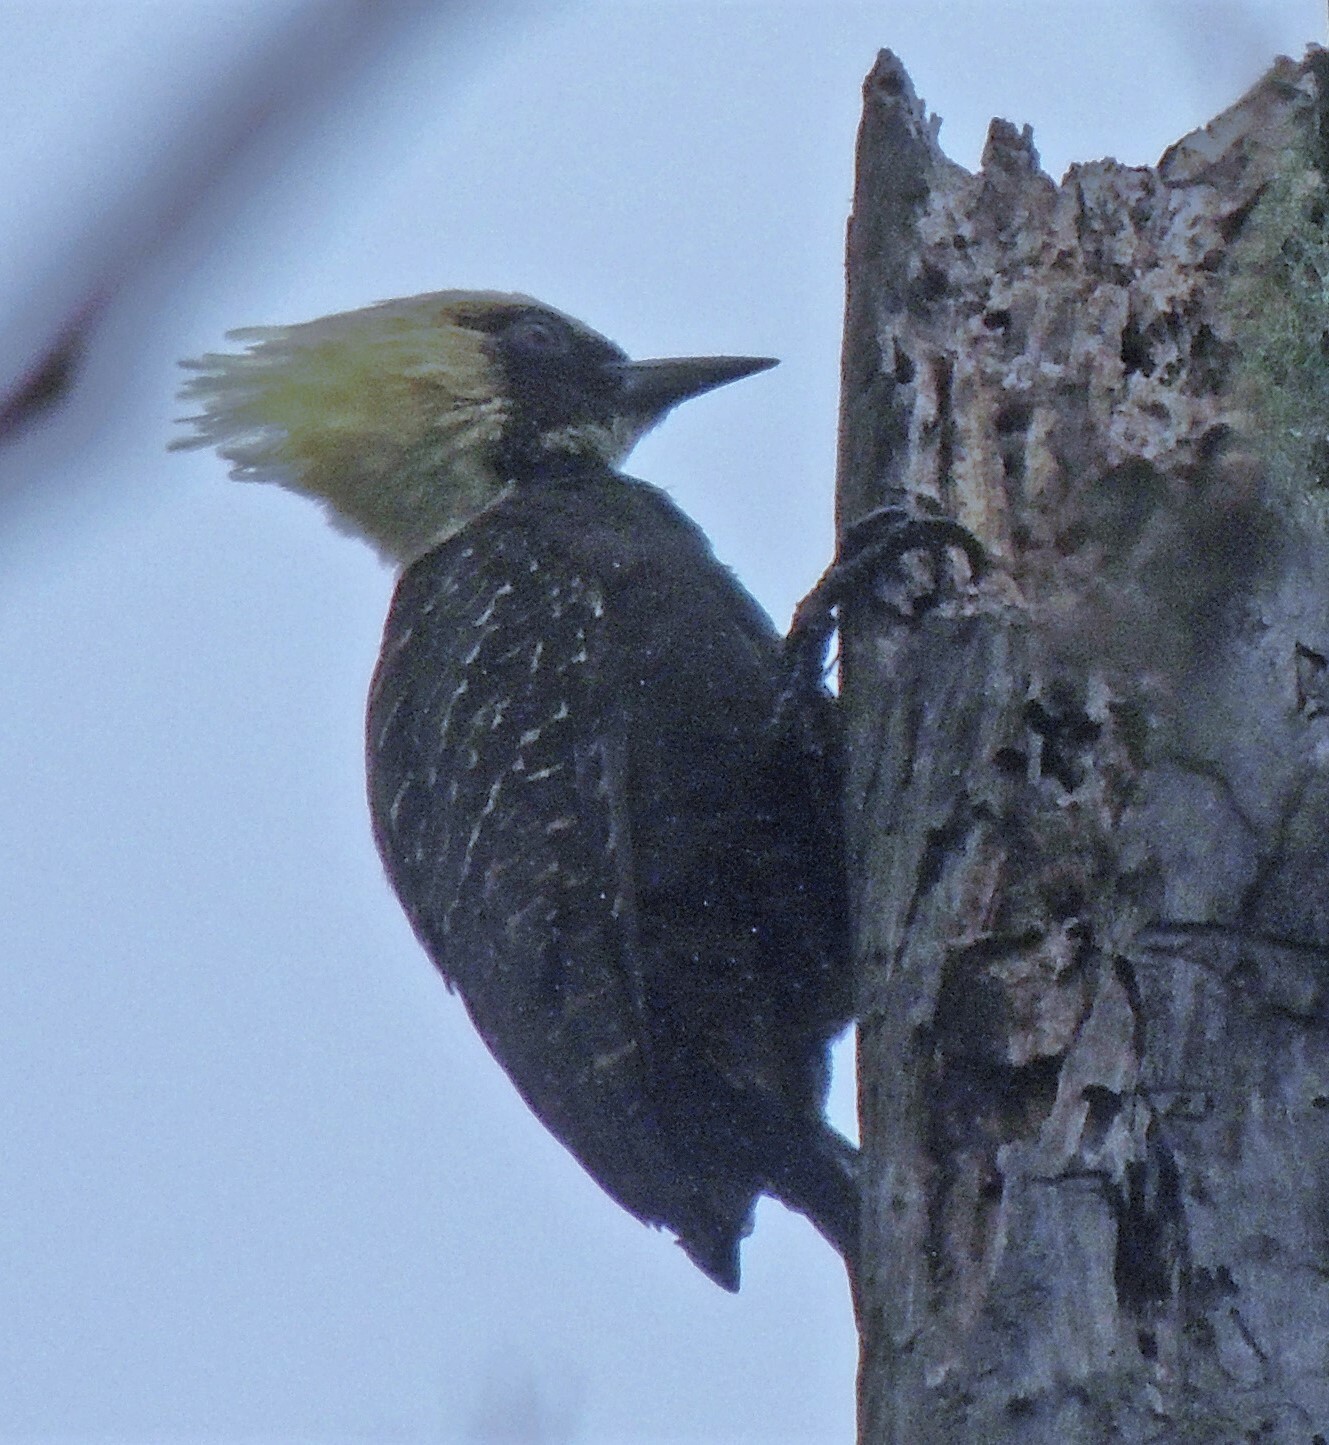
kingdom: Animalia
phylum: Chordata
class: Aves
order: Piciformes
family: Picidae
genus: Celeus
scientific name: Celeus lugubris
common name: Pale-crested woodpecker
